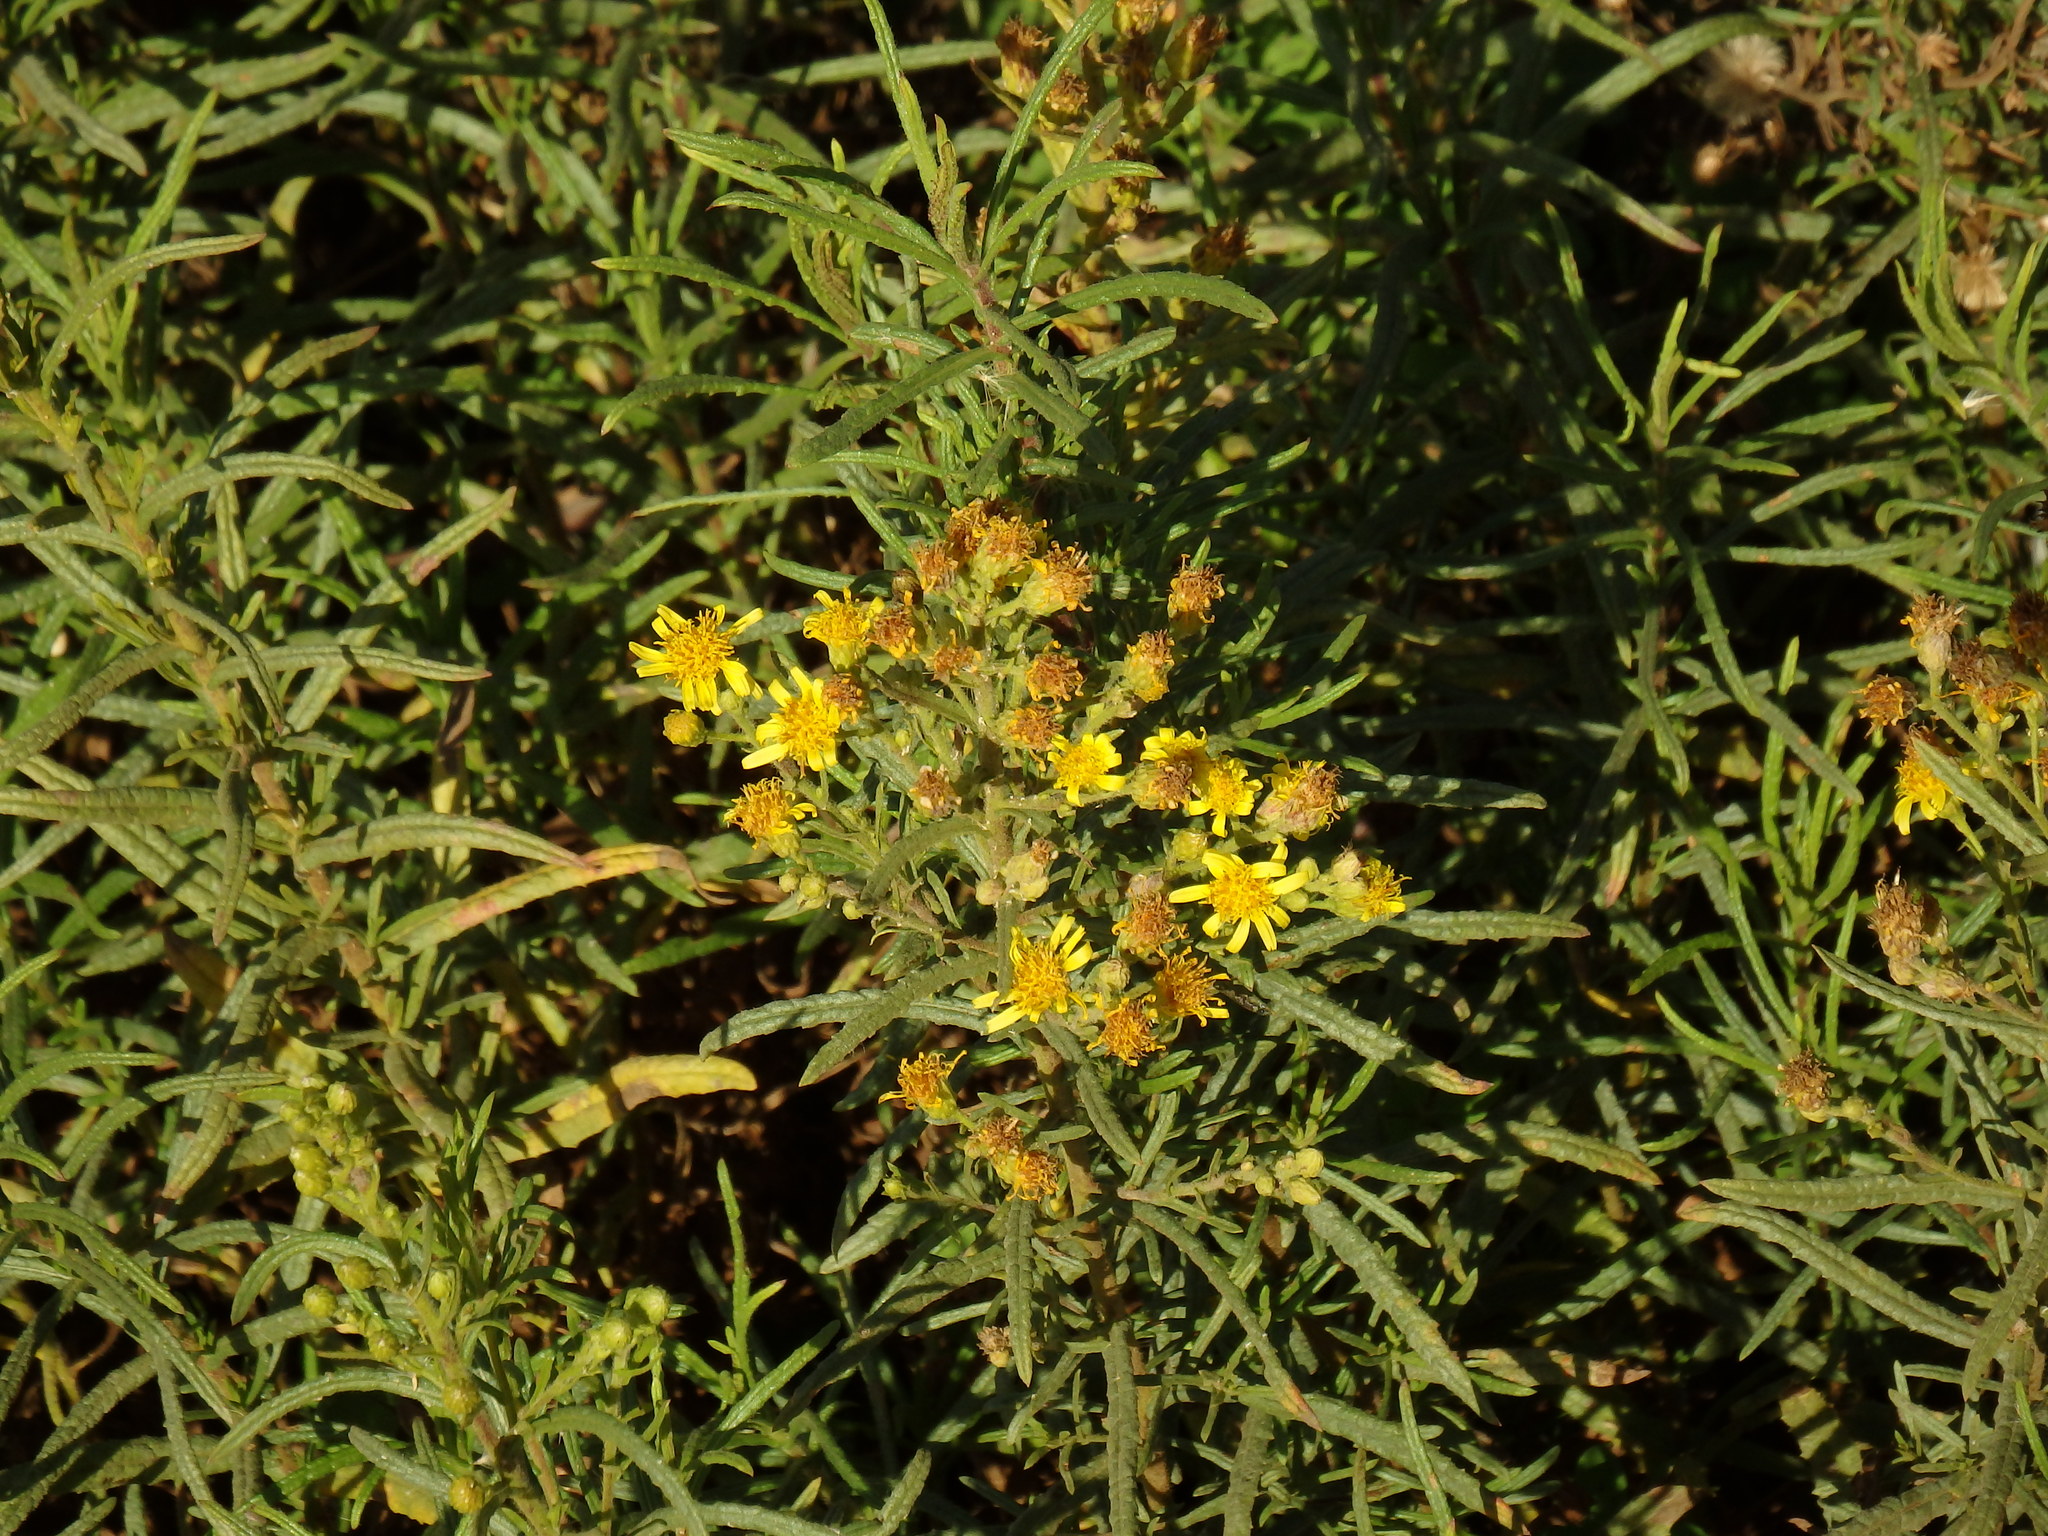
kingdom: Plantae
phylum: Tracheophyta
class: Magnoliopsida
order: Asterales
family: Asteraceae
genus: Dittrichia
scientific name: Dittrichia viscosa
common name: Woody fleabane
